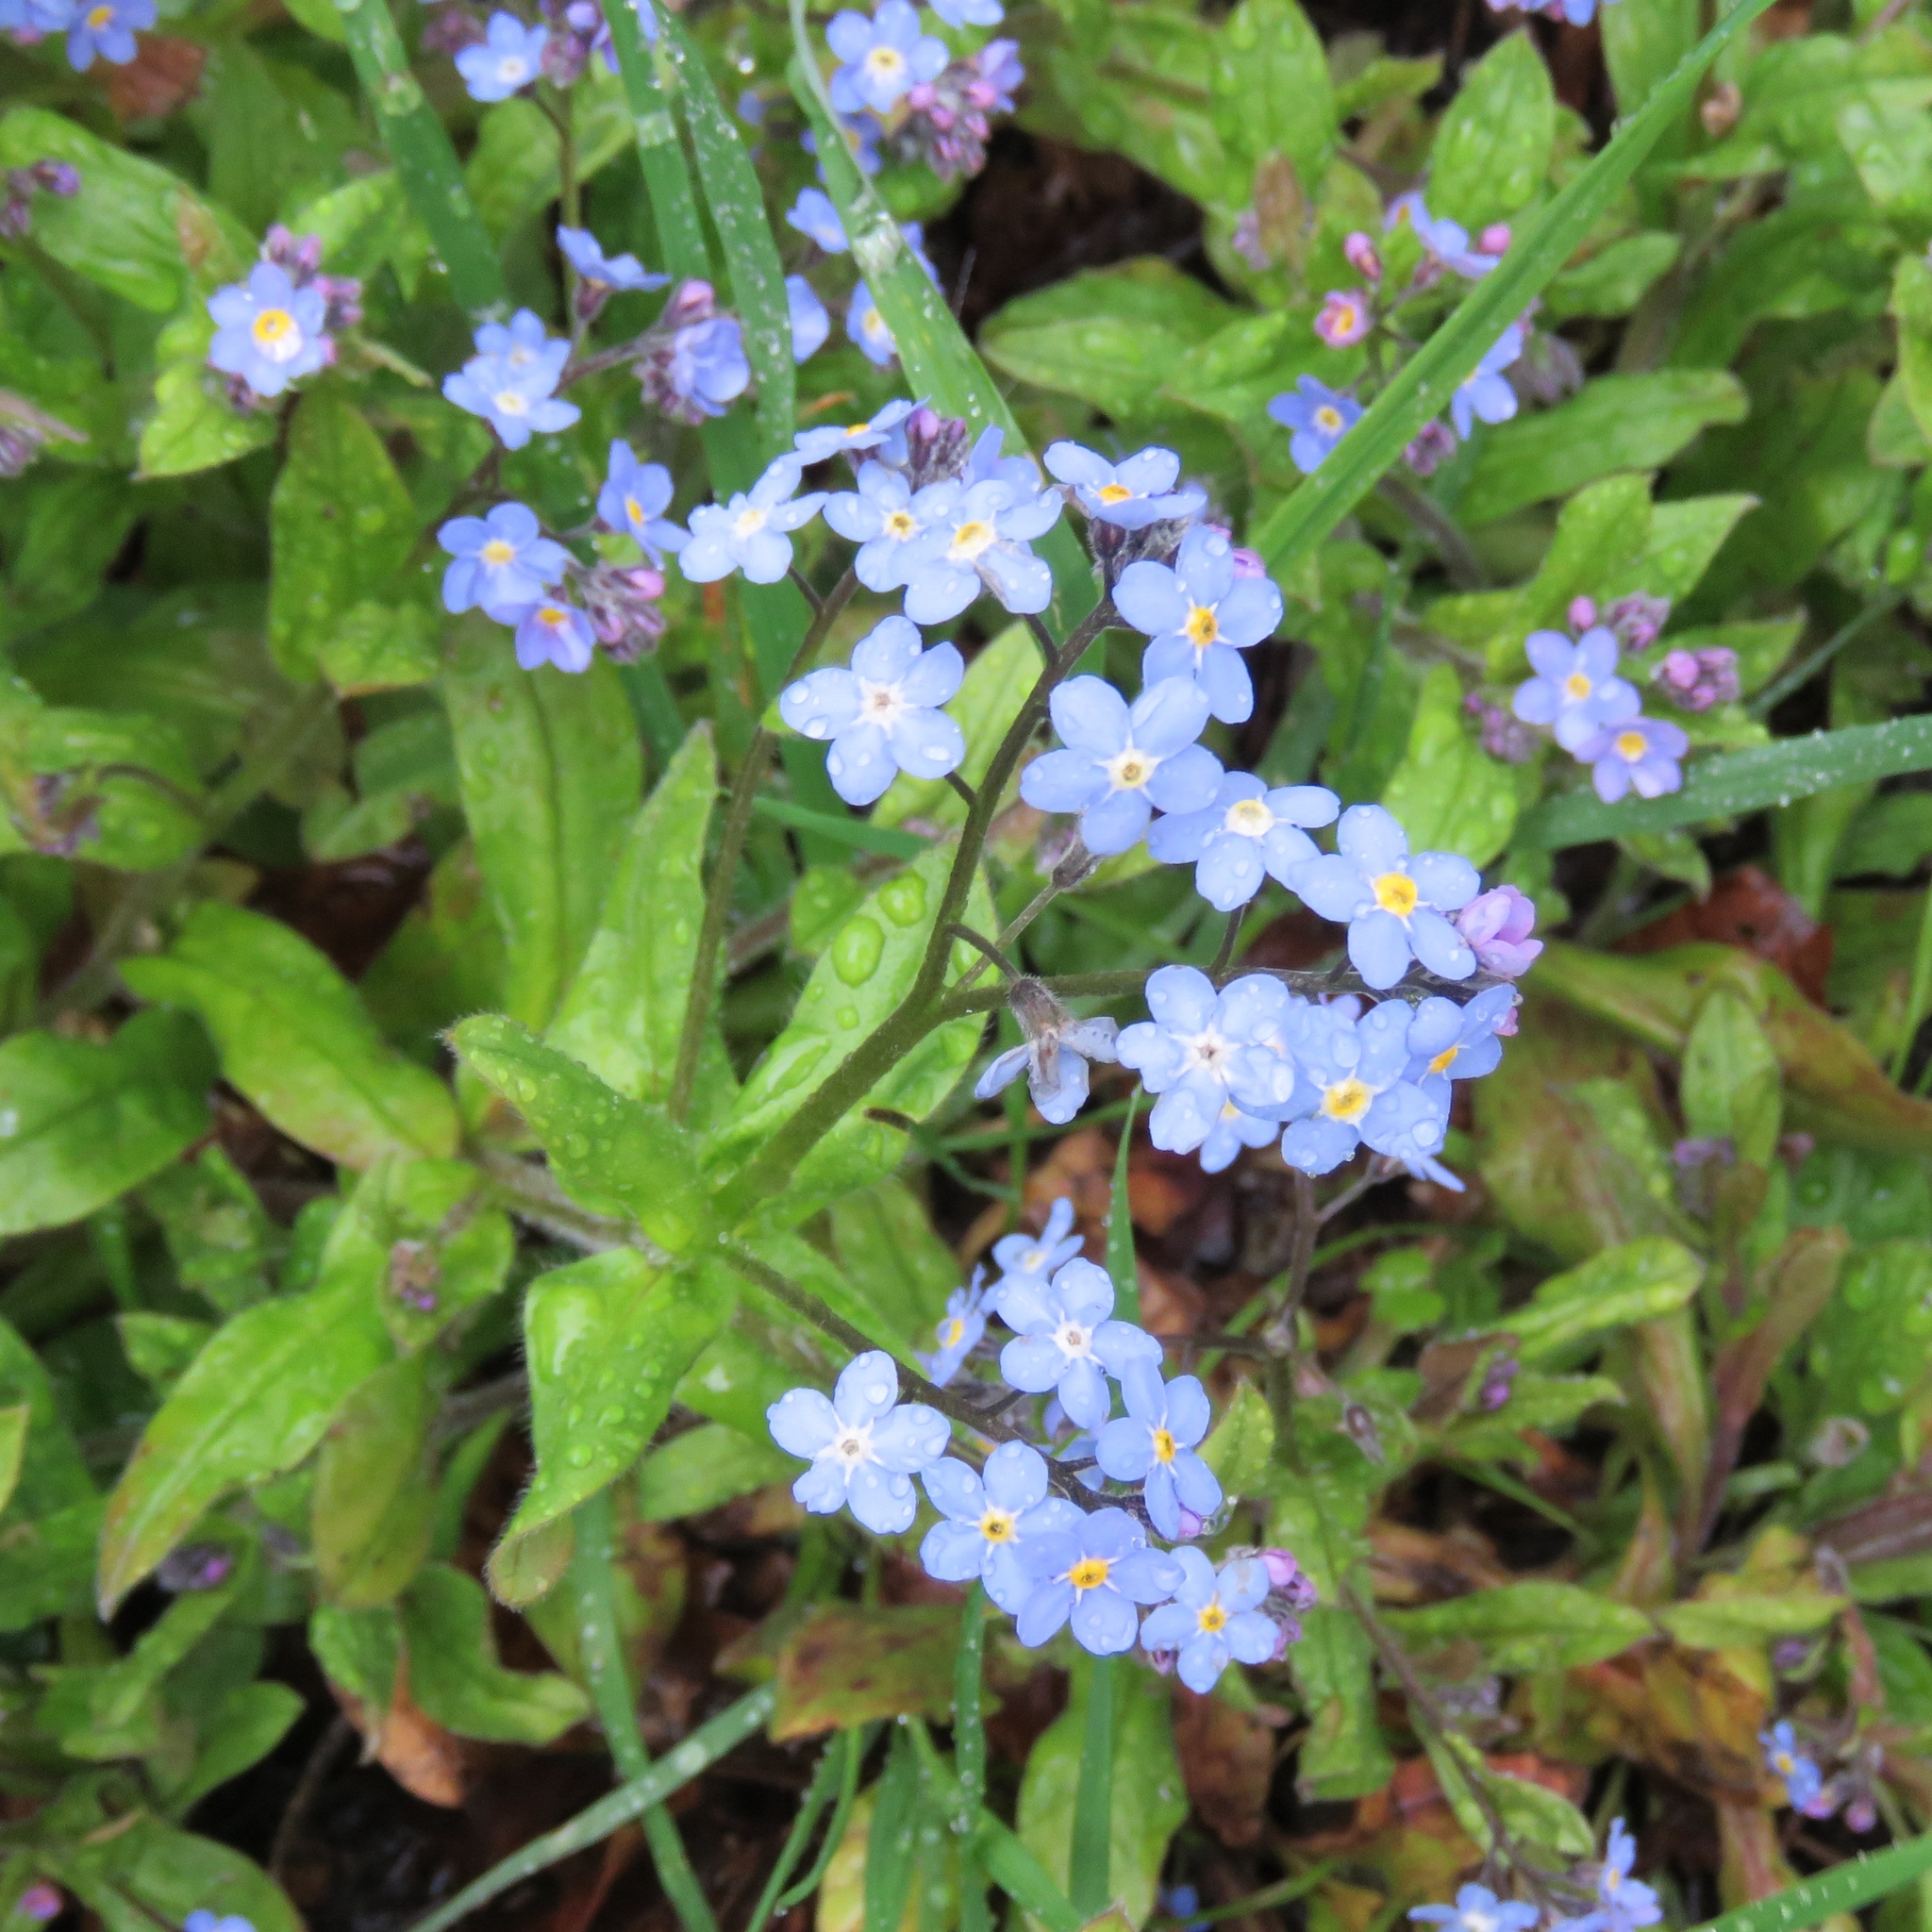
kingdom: Plantae
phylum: Tracheophyta
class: Magnoliopsida
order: Boraginales
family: Boraginaceae
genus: Myosotis
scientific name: Myosotis sylvatica
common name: Wood forget-me-not
